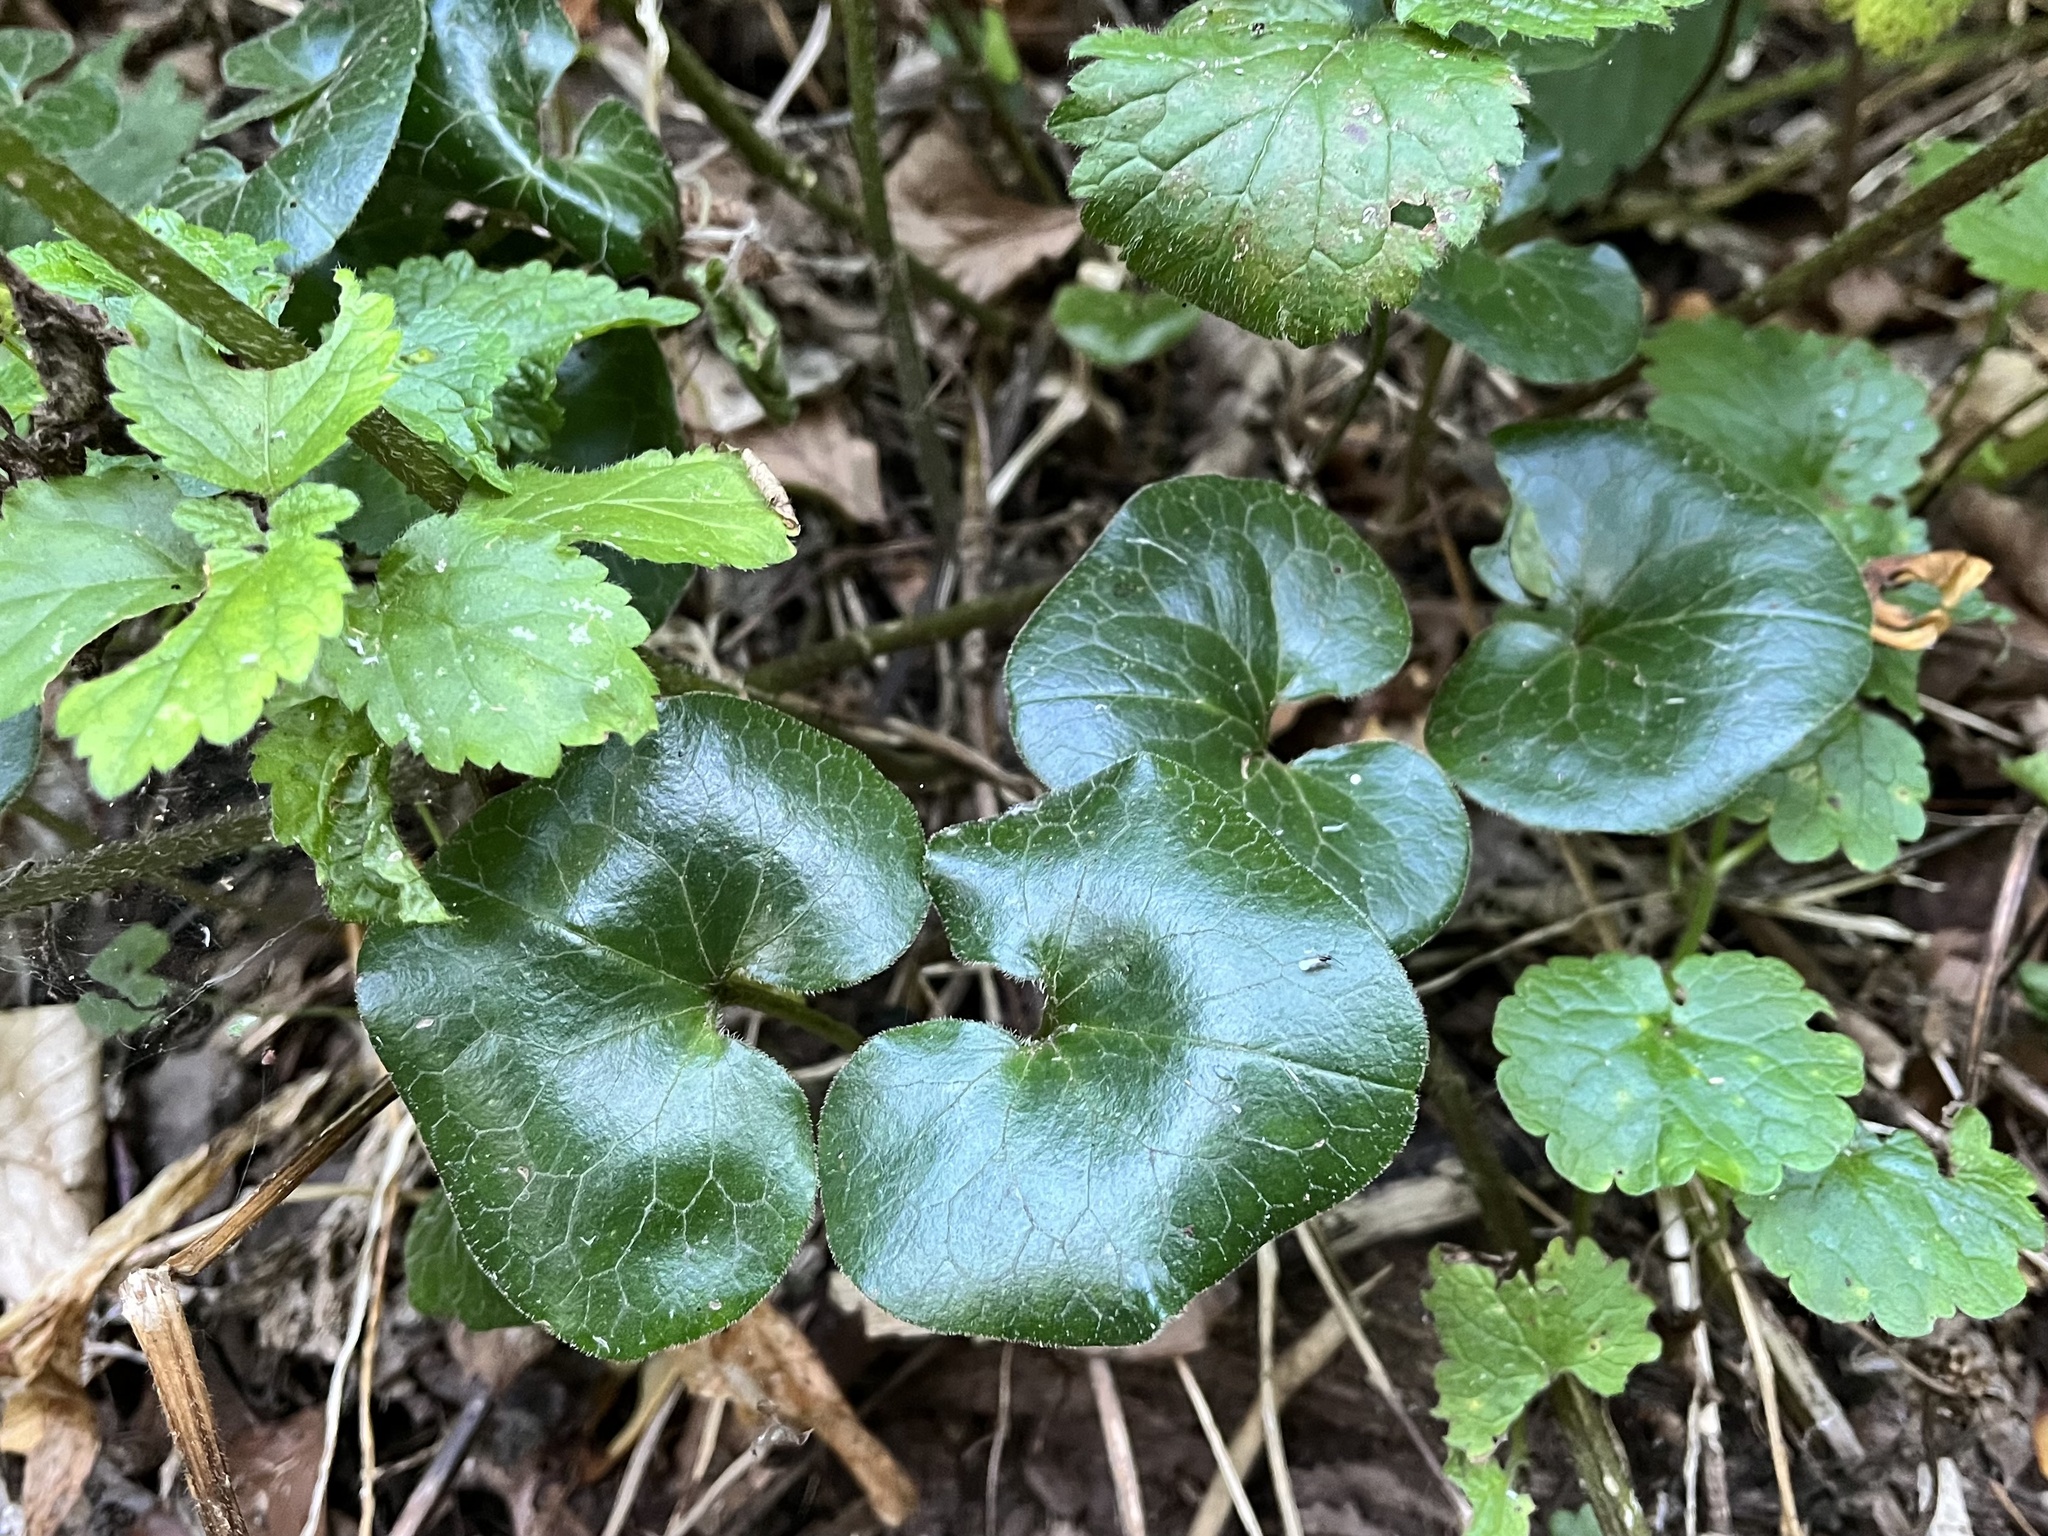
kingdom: Plantae
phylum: Tracheophyta
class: Magnoliopsida
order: Piperales
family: Aristolochiaceae
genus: Asarum
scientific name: Asarum europaeum
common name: Asarabacca
